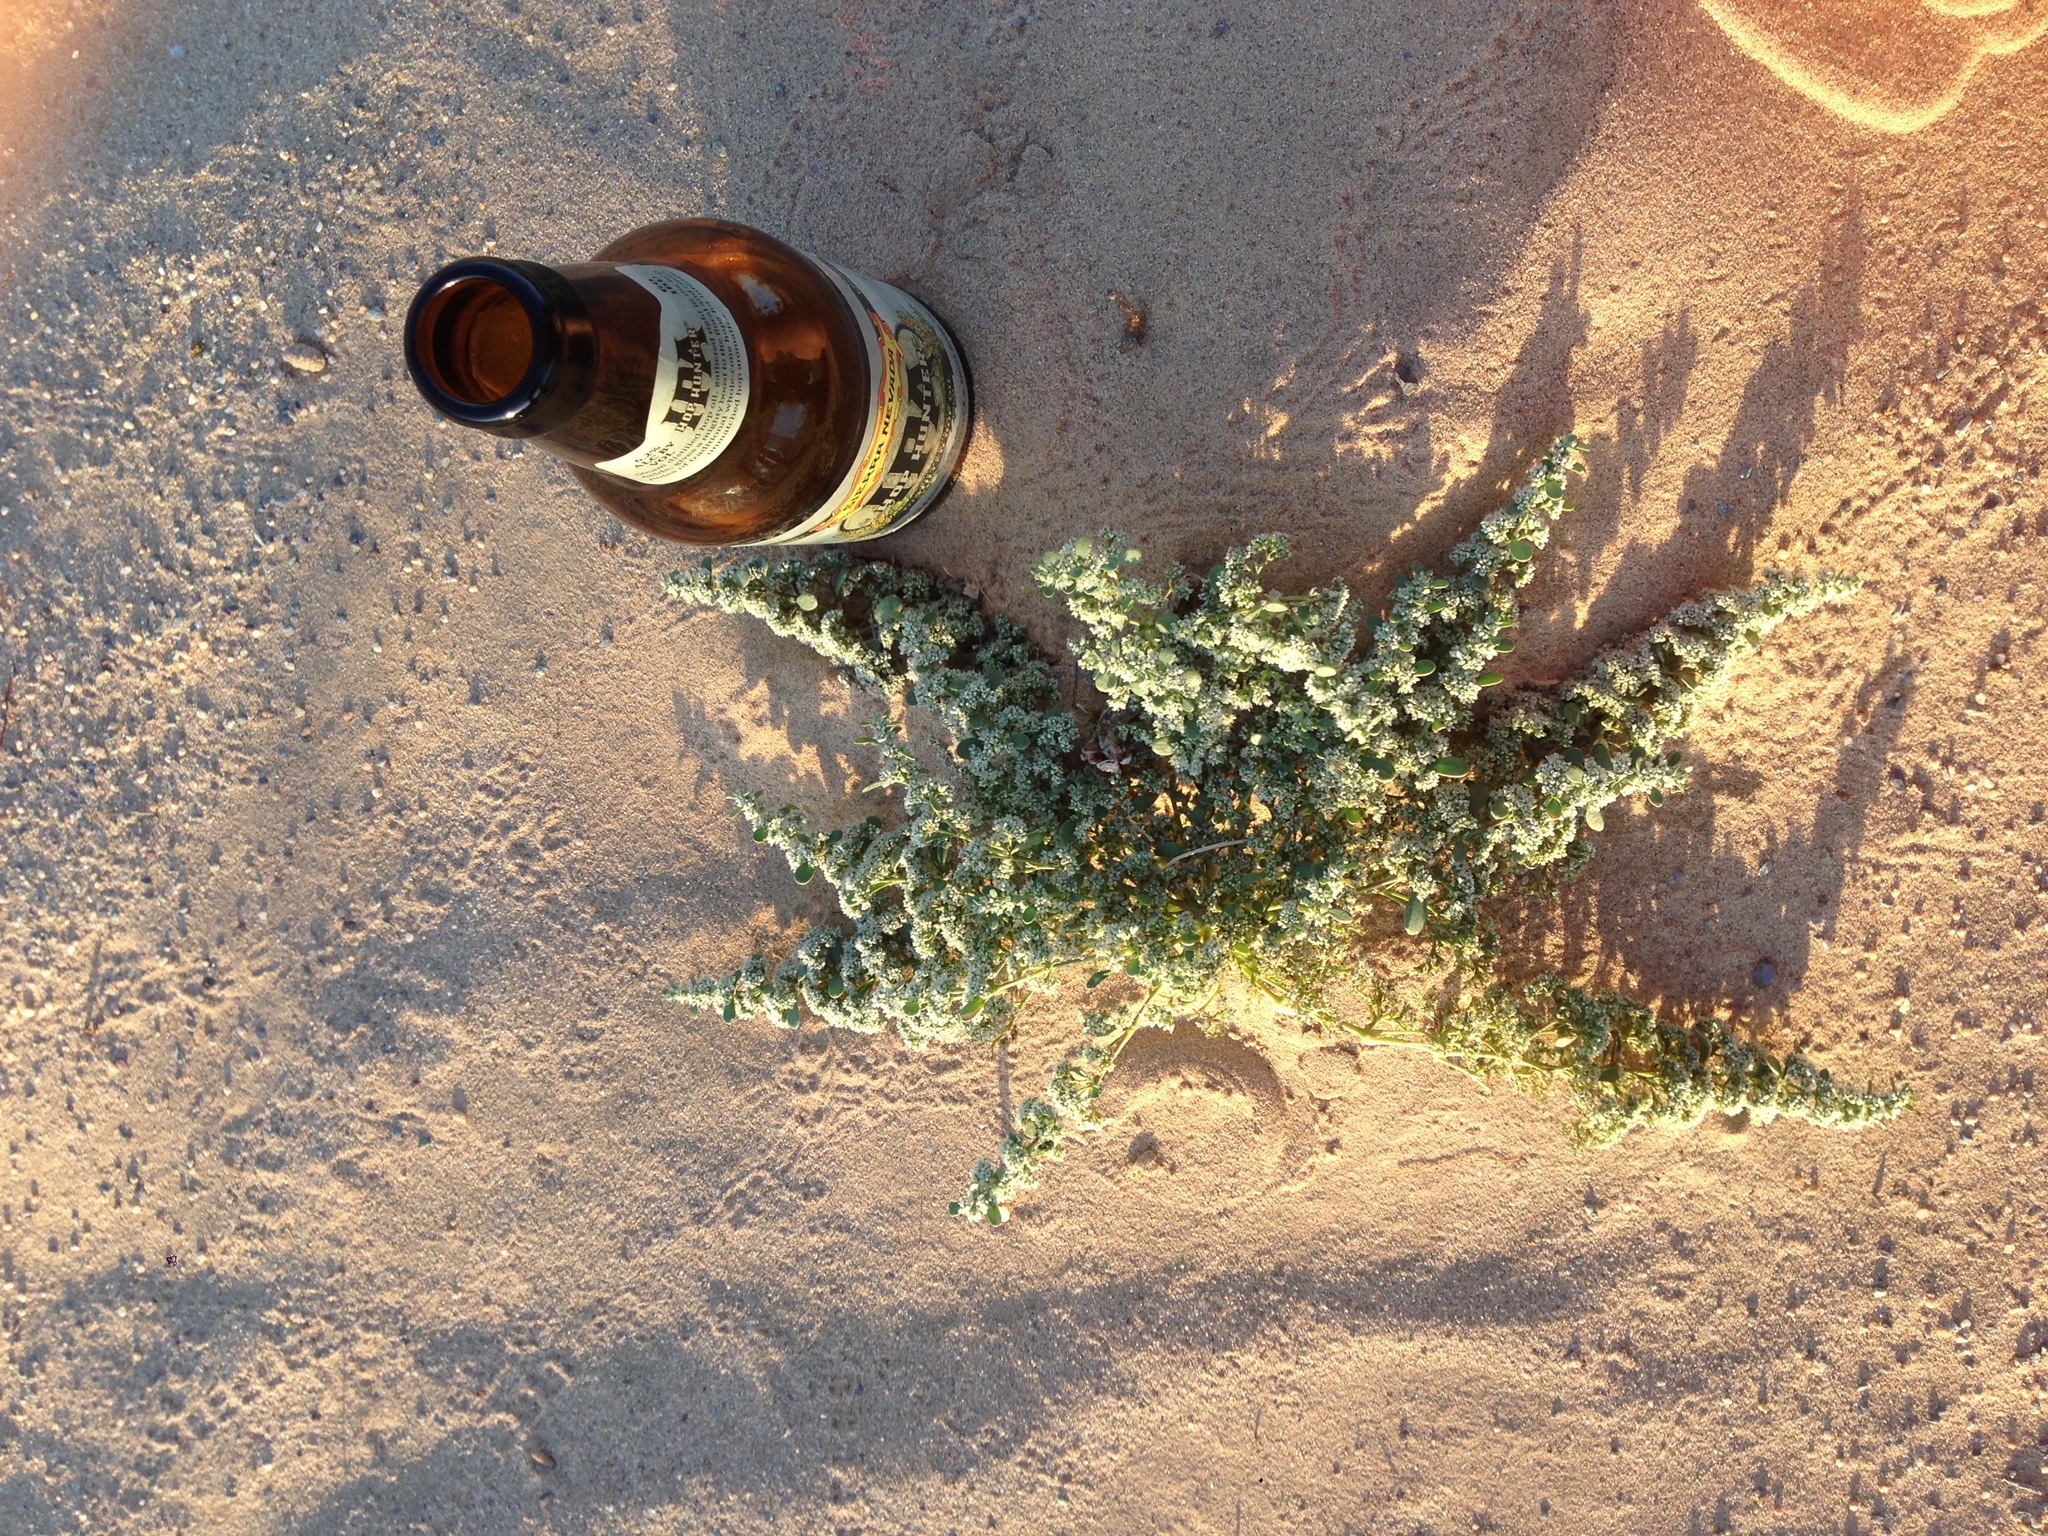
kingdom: Plantae
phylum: Tracheophyta
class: Magnoliopsida
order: Caryophyllales
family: Caryophyllaceae
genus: Achyronychia
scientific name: Achyronychia cooperi
